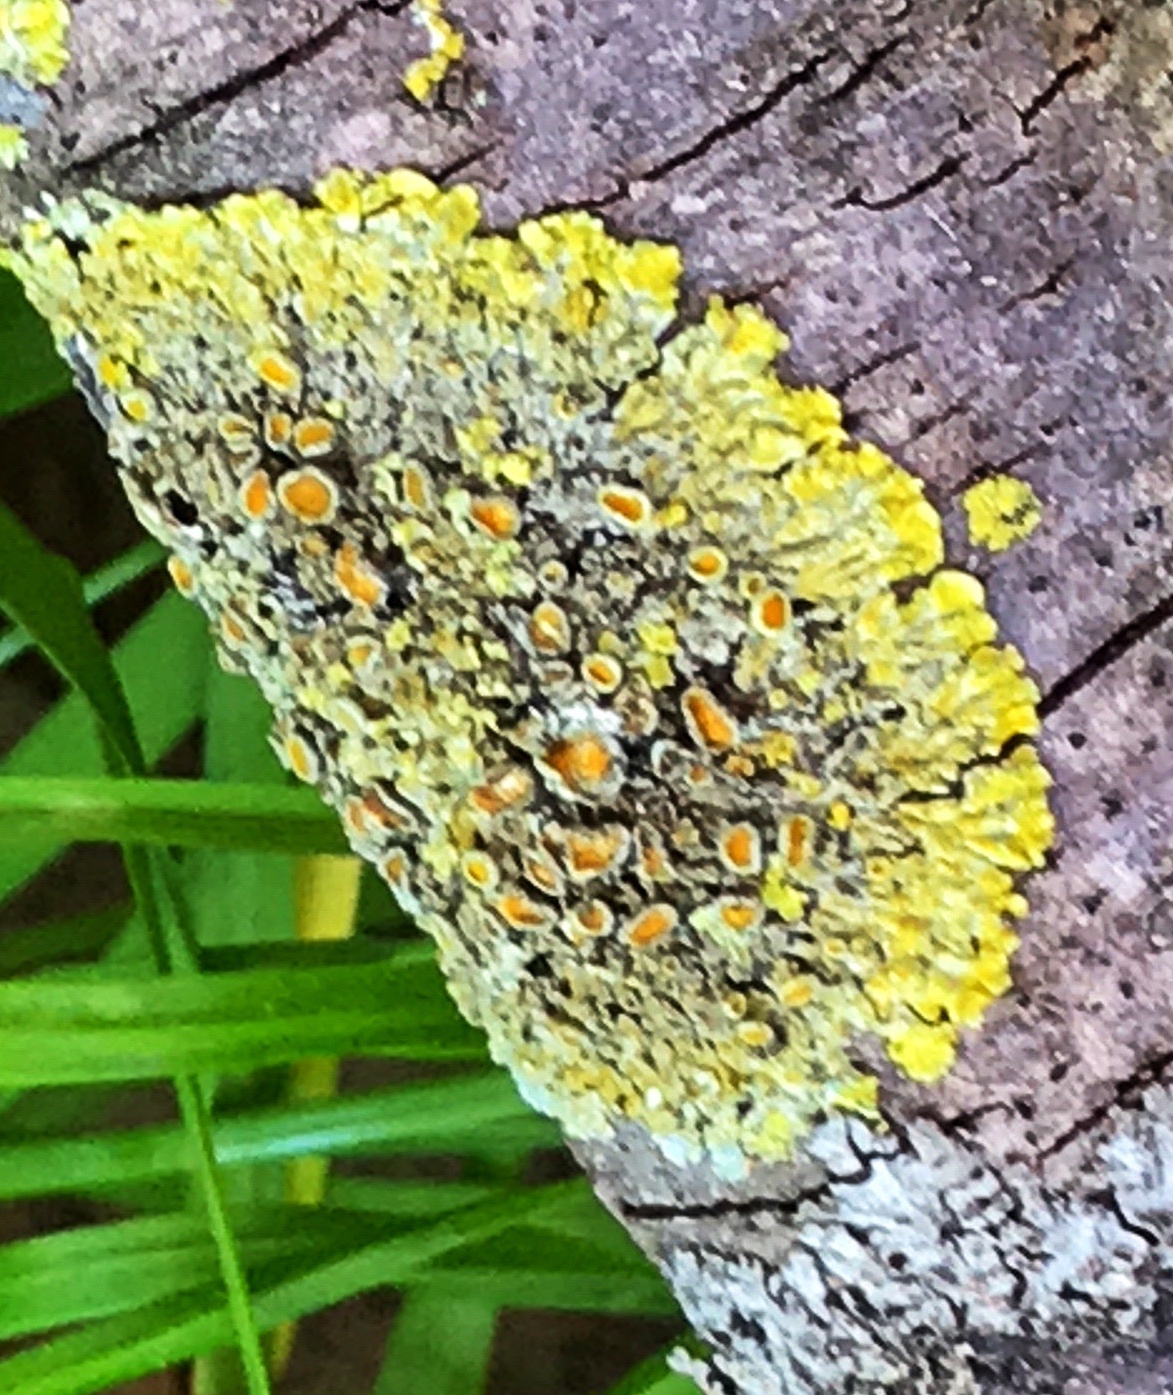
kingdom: Fungi
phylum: Ascomycota
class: Lecanoromycetes
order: Teloschistales
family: Teloschistaceae
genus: Xanthoria
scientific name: Xanthoria parietina
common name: Common orange lichen
